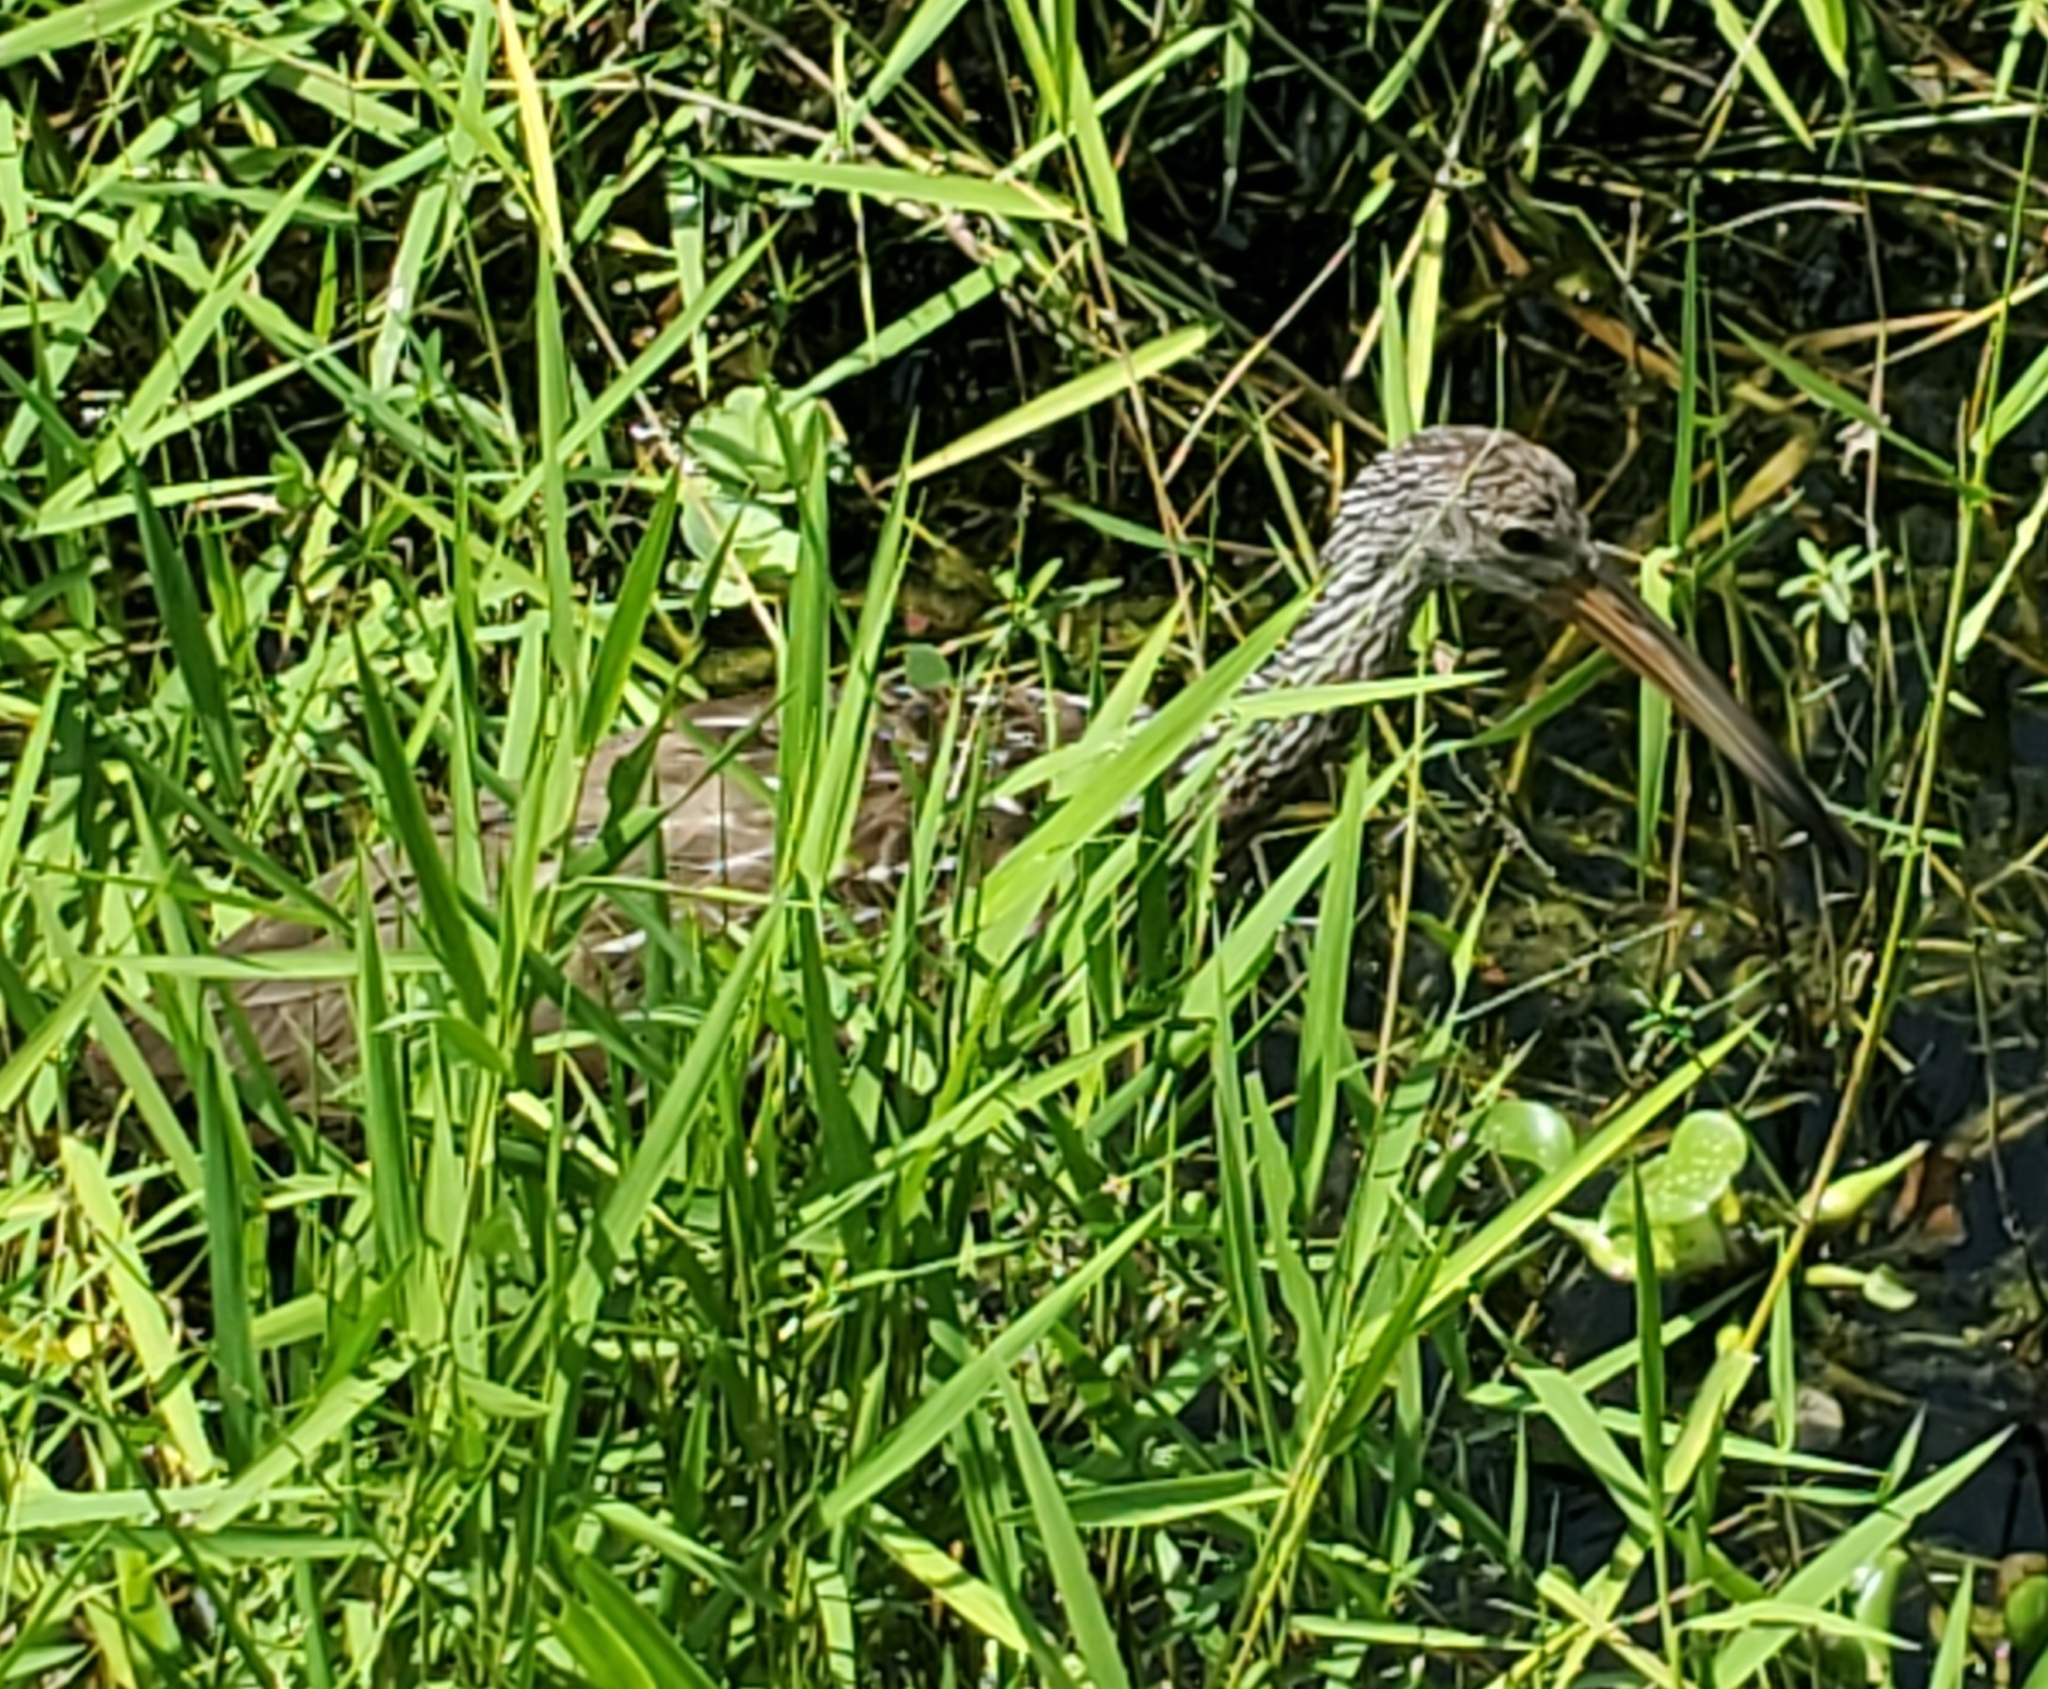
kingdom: Animalia
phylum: Chordata
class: Aves
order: Gruiformes
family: Aramidae
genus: Aramus
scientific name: Aramus guarauna
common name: Limpkin
